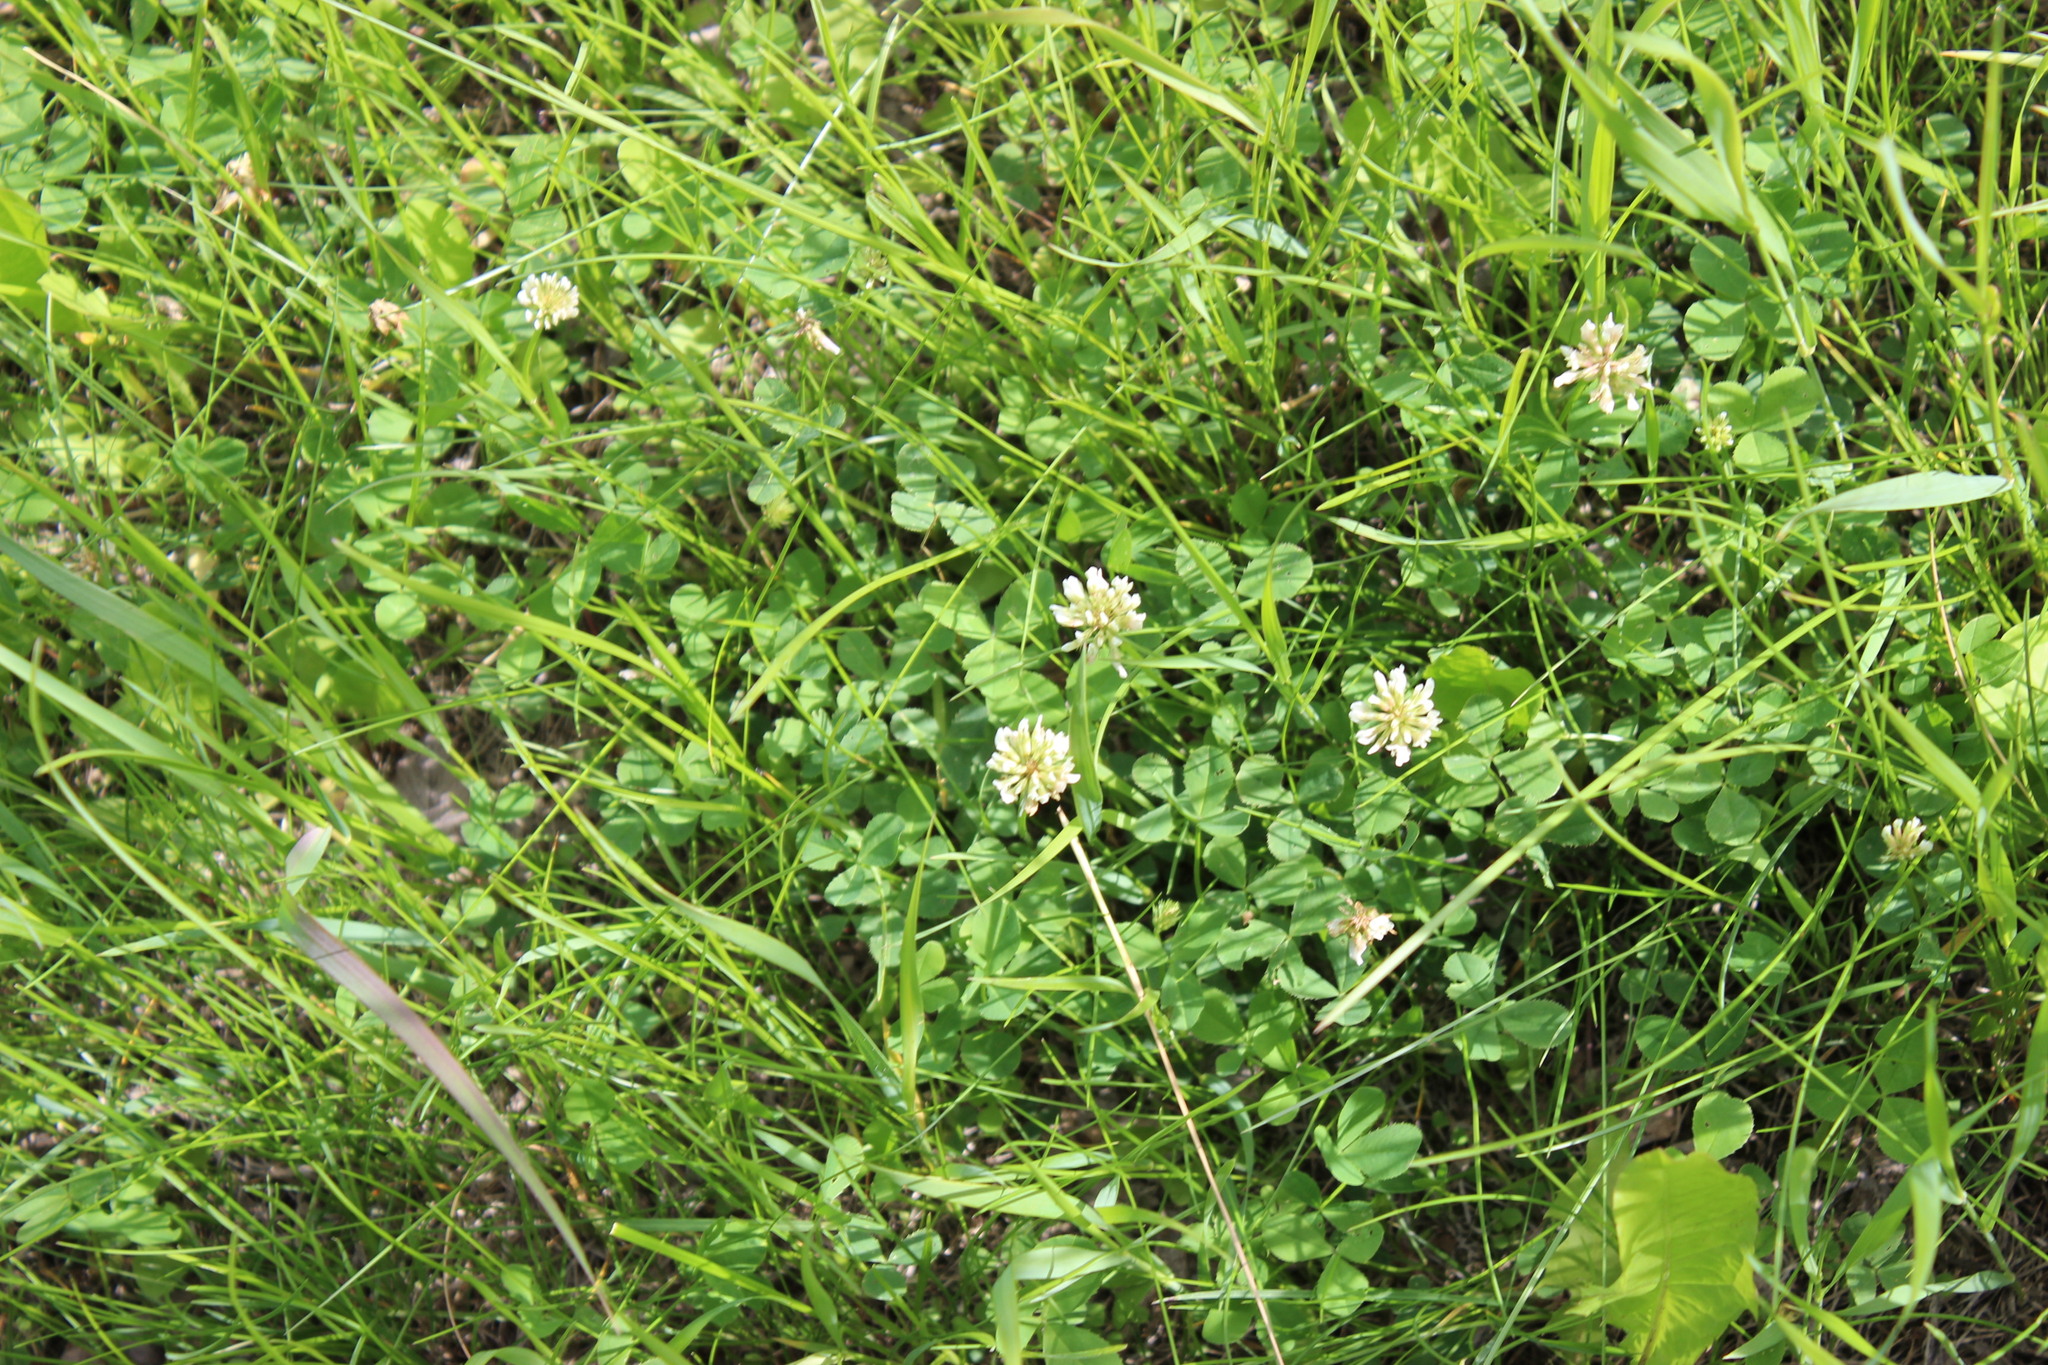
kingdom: Plantae
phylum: Tracheophyta
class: Magnoliopsida
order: Fabales
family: Fabaceae
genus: Trifolium
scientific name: Trifolium repens
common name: White clover
